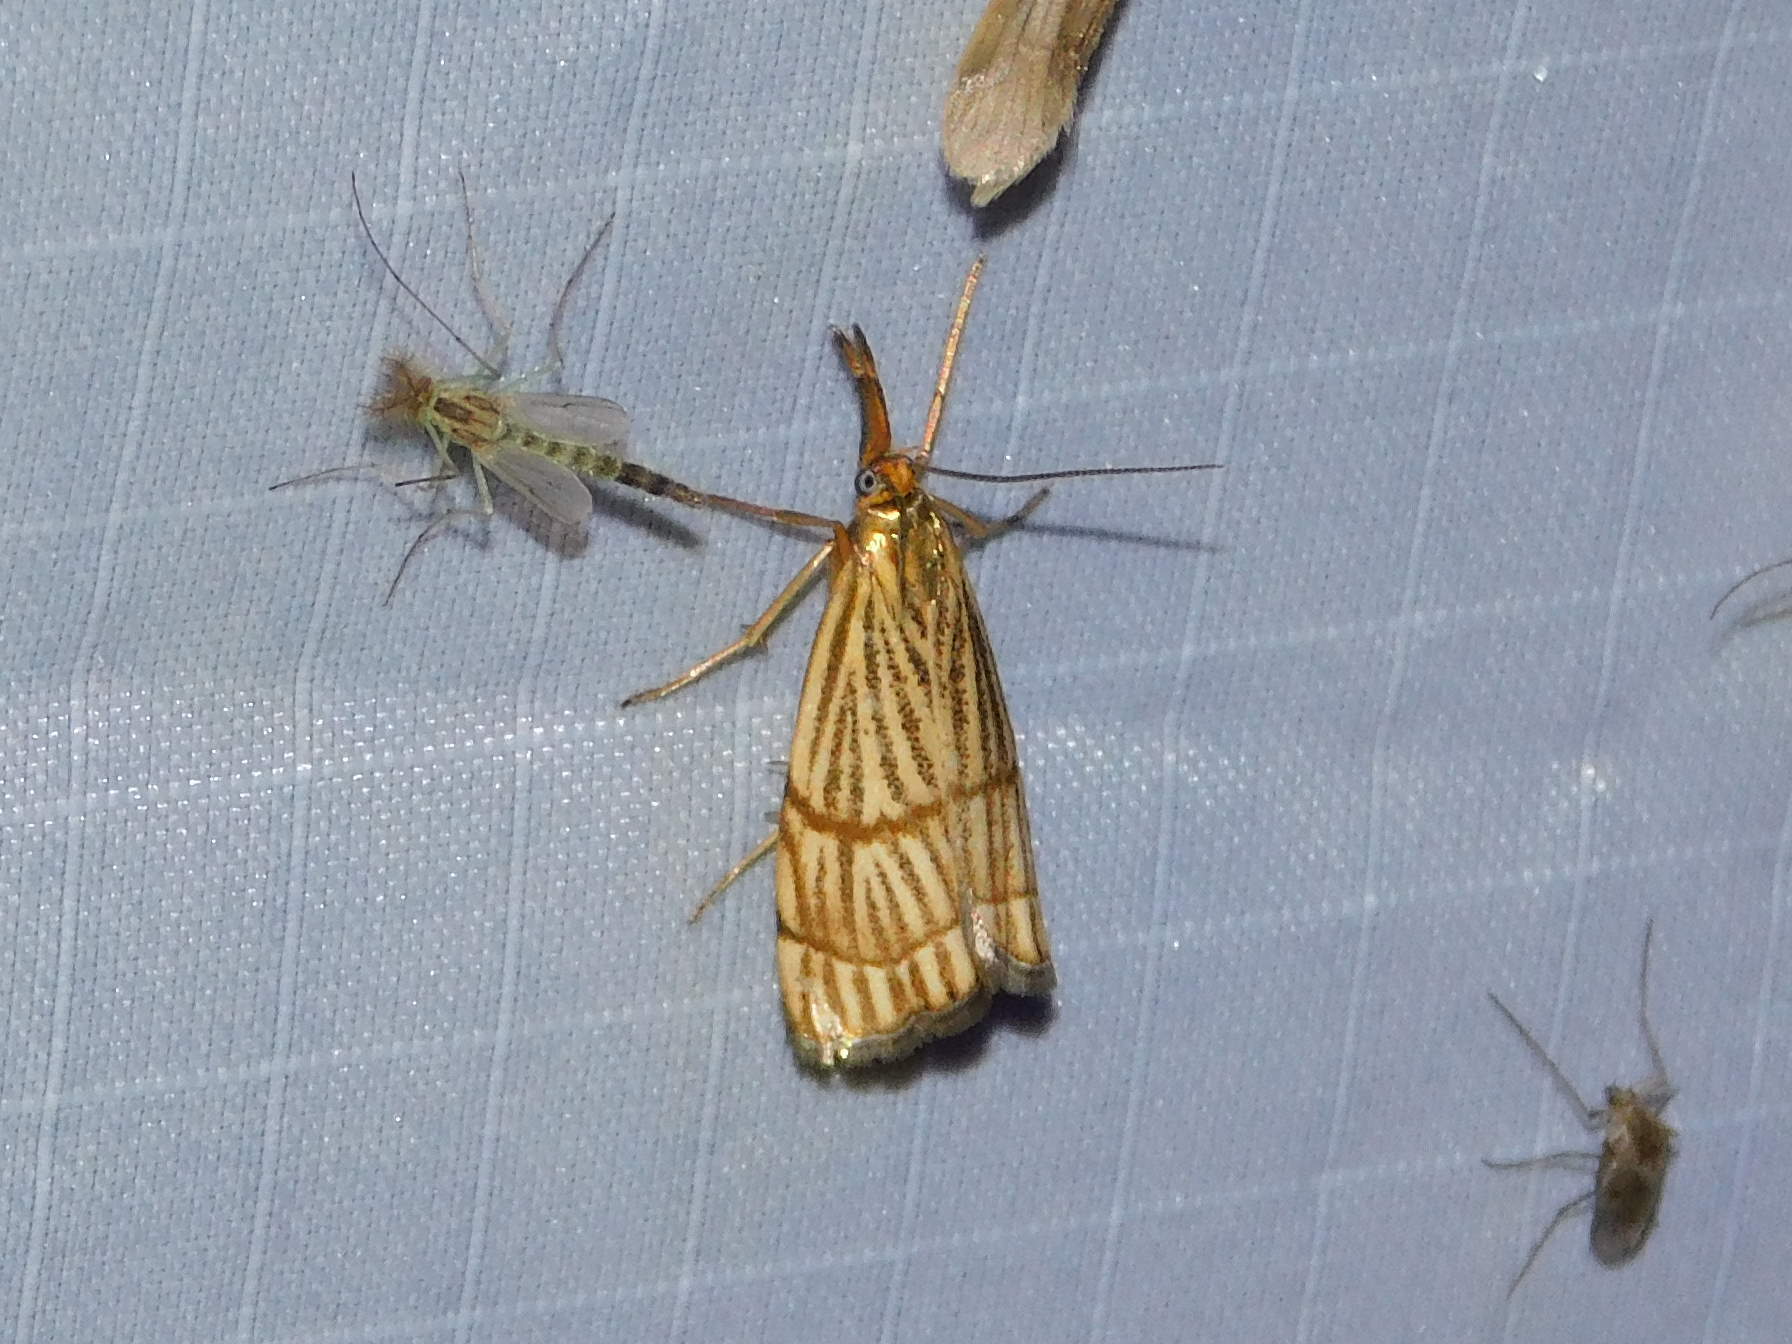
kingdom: Animalia
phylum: Arthropoda
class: Insecta
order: Lepidoptera
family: Crambidae
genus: Chrysocrambus
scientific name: Chrysocrambus linetella
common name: Orange-bar grass-veneer
